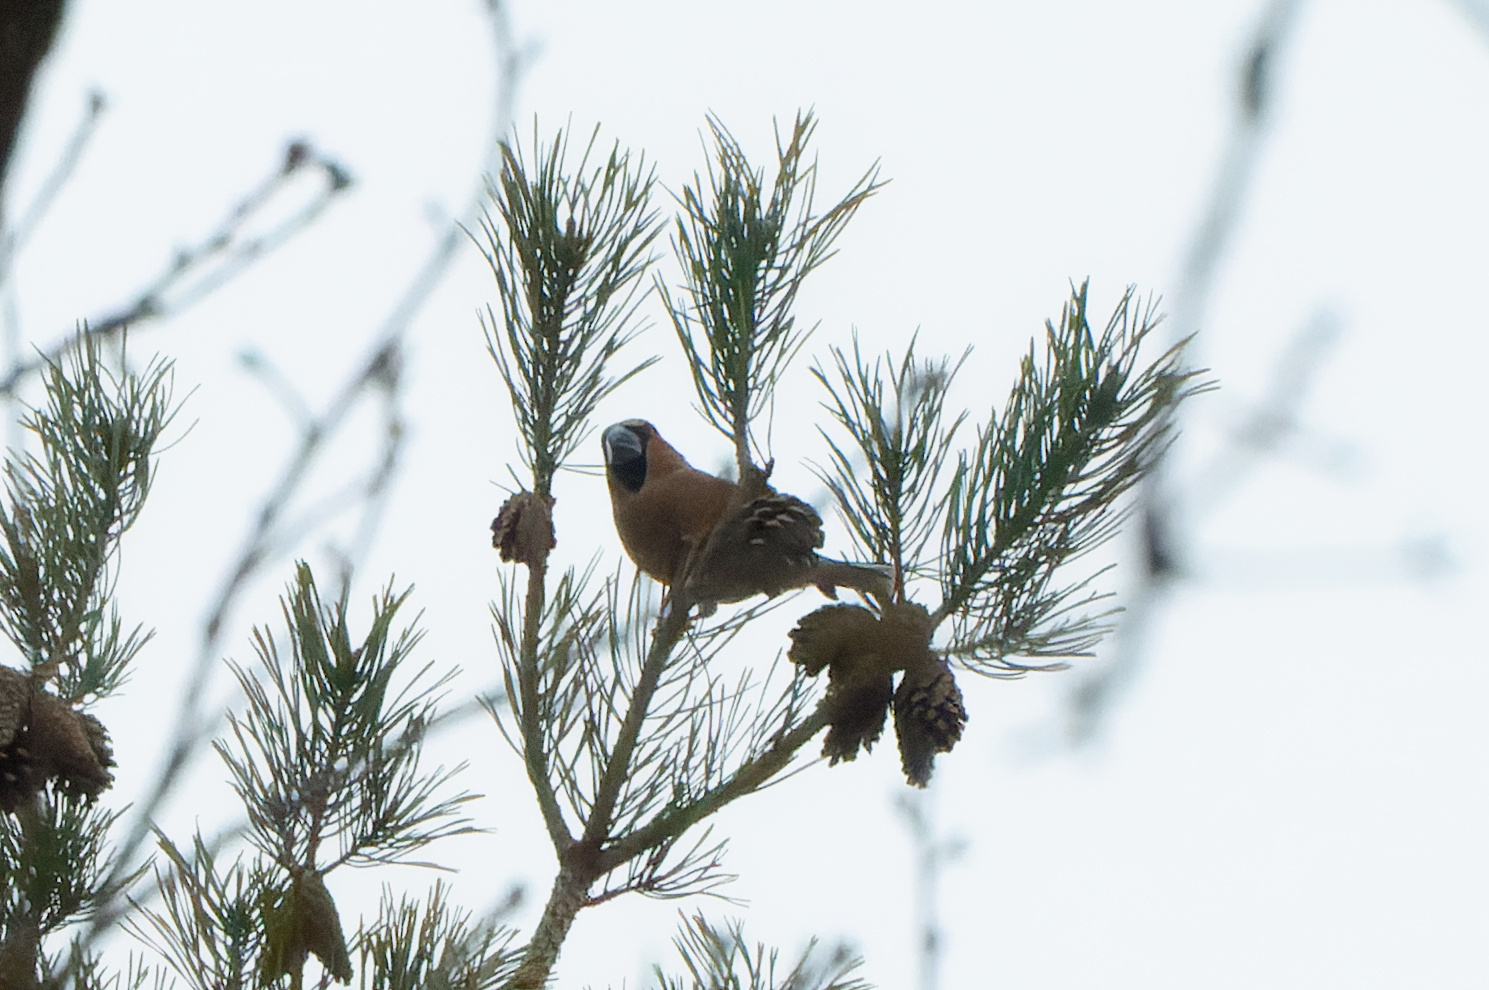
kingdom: Animalia
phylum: Chordata
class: Aves
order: Passeriformes
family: Fringillidae
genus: Coccothraustes
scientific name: Coccothraustes coccothraustes
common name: Hawfinch
